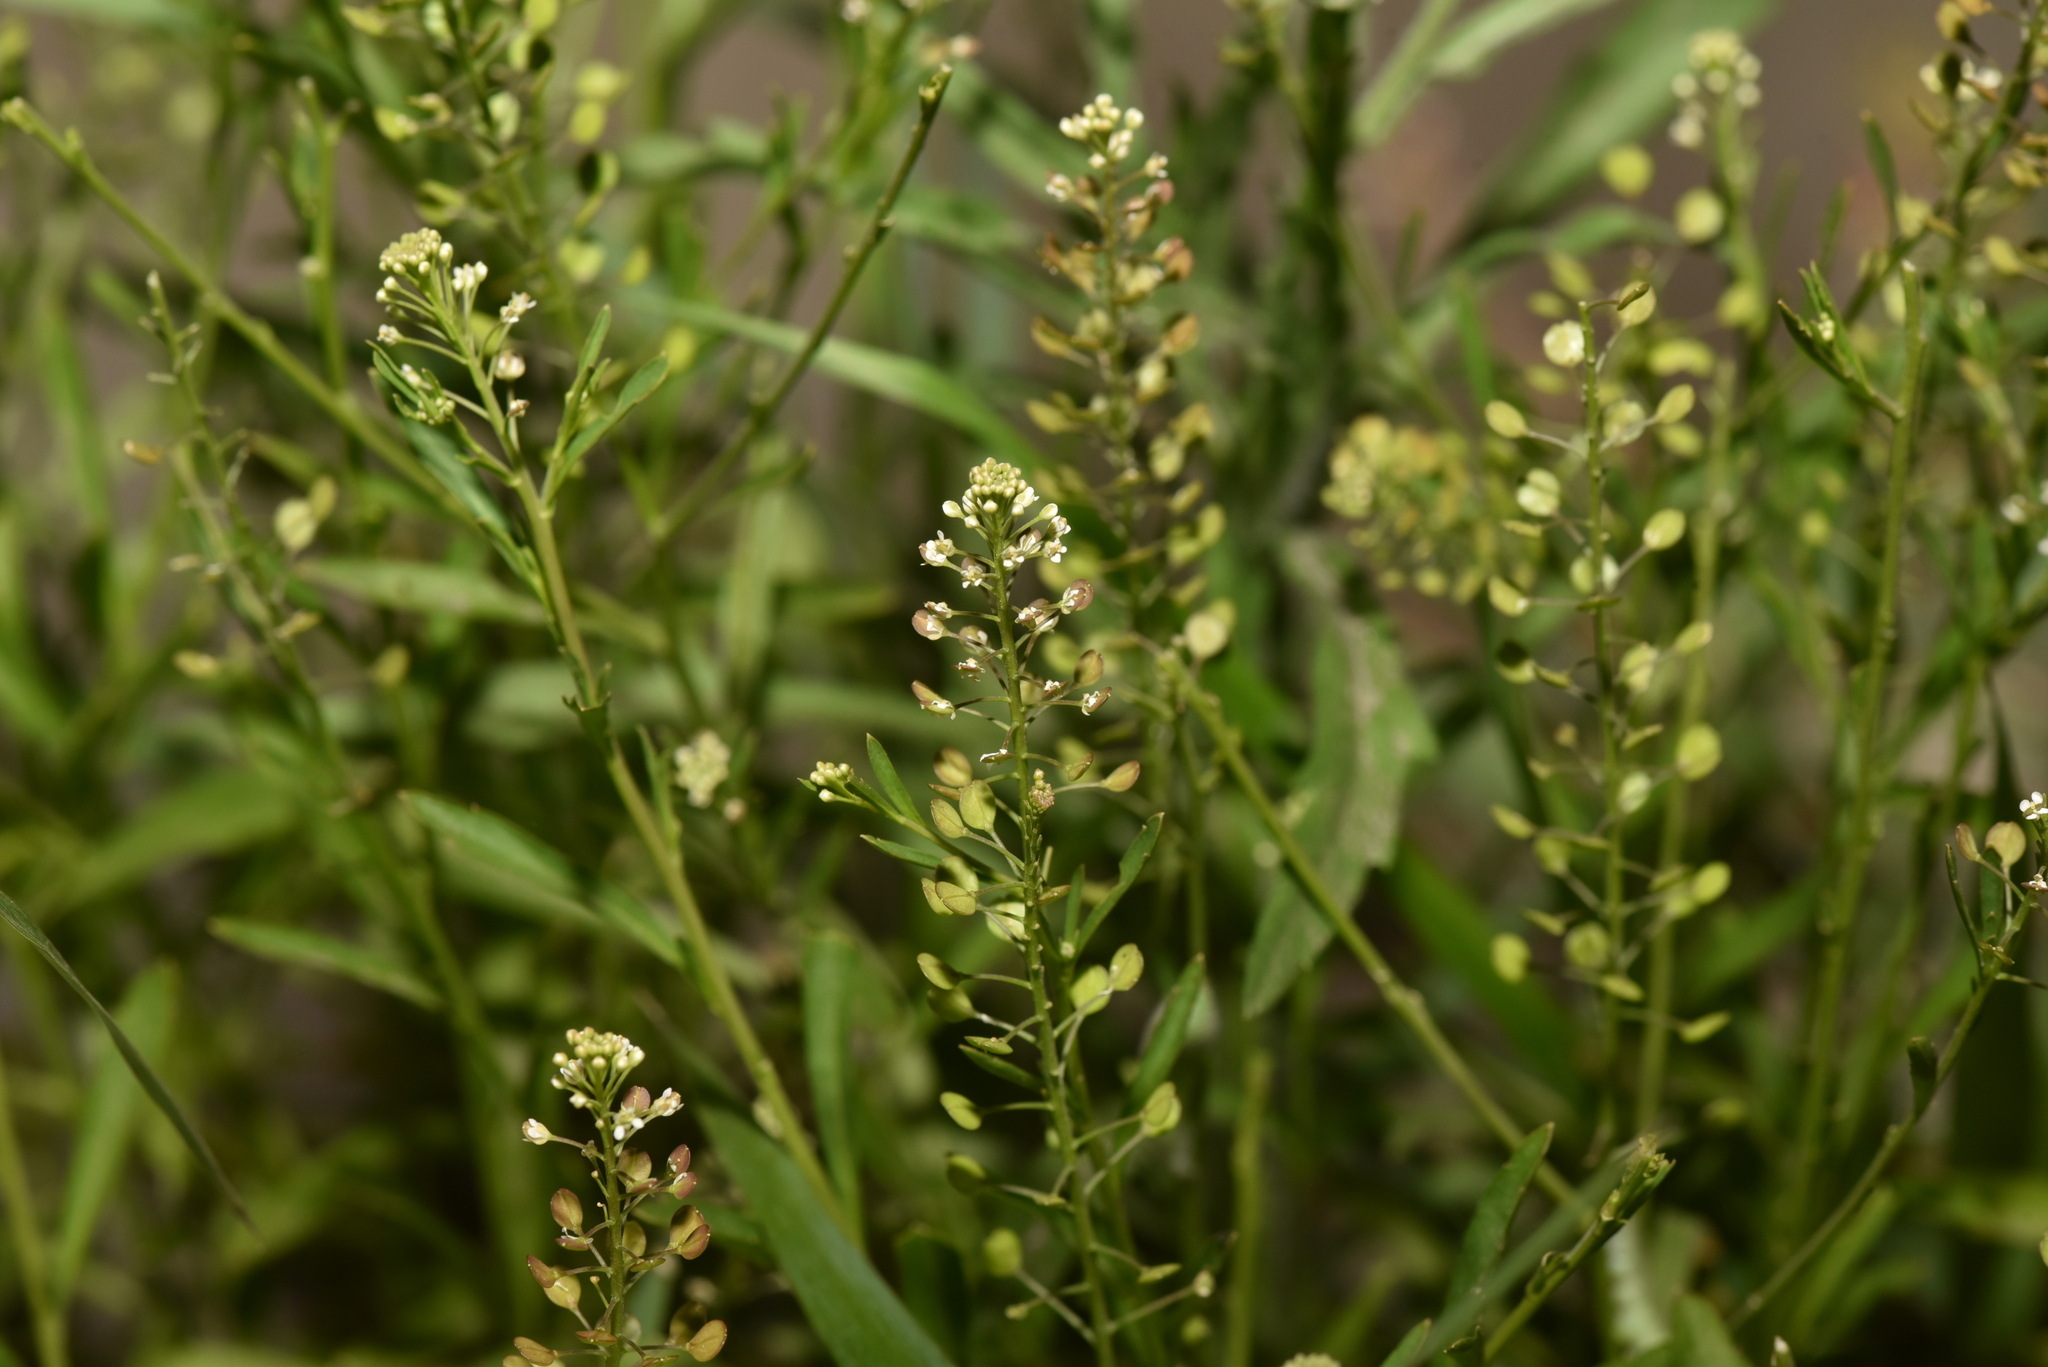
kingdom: Plantae
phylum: Tracheophyta
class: Magnoliopsida
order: Brassicales
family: Brassicaceae
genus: Lepidium
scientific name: Lepidium virginicum
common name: Least pepperwort
